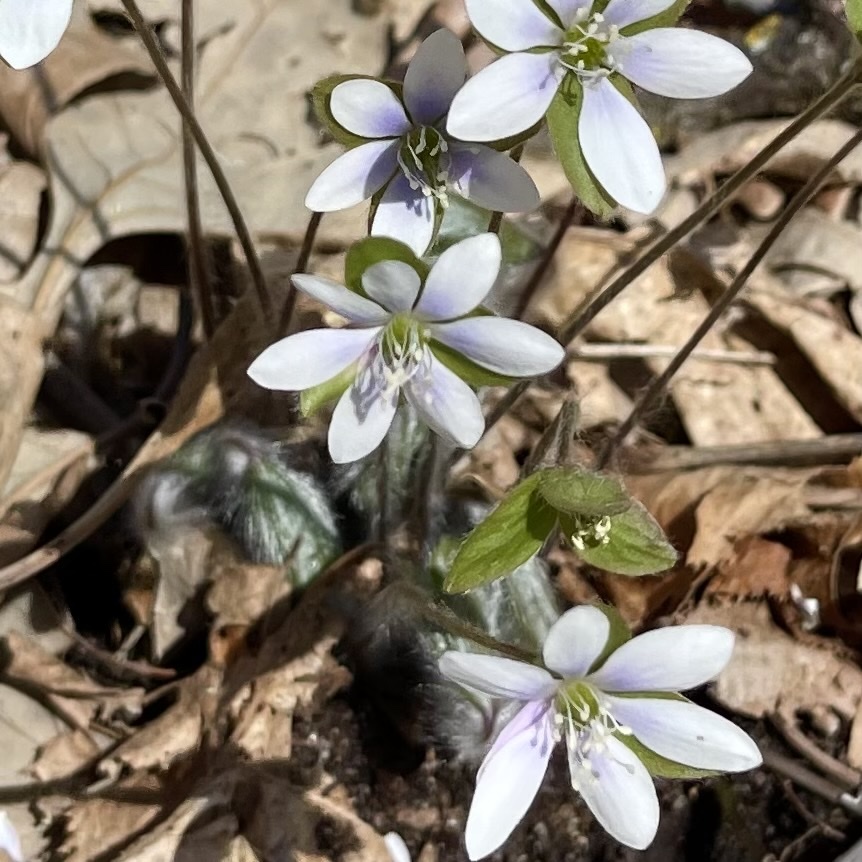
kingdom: Plantae
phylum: Tracheophyta
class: Magnoliopsida
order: Ranunculales
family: Ranunculaceae
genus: Hepatica
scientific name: Hepatica americana
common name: American hepatica
